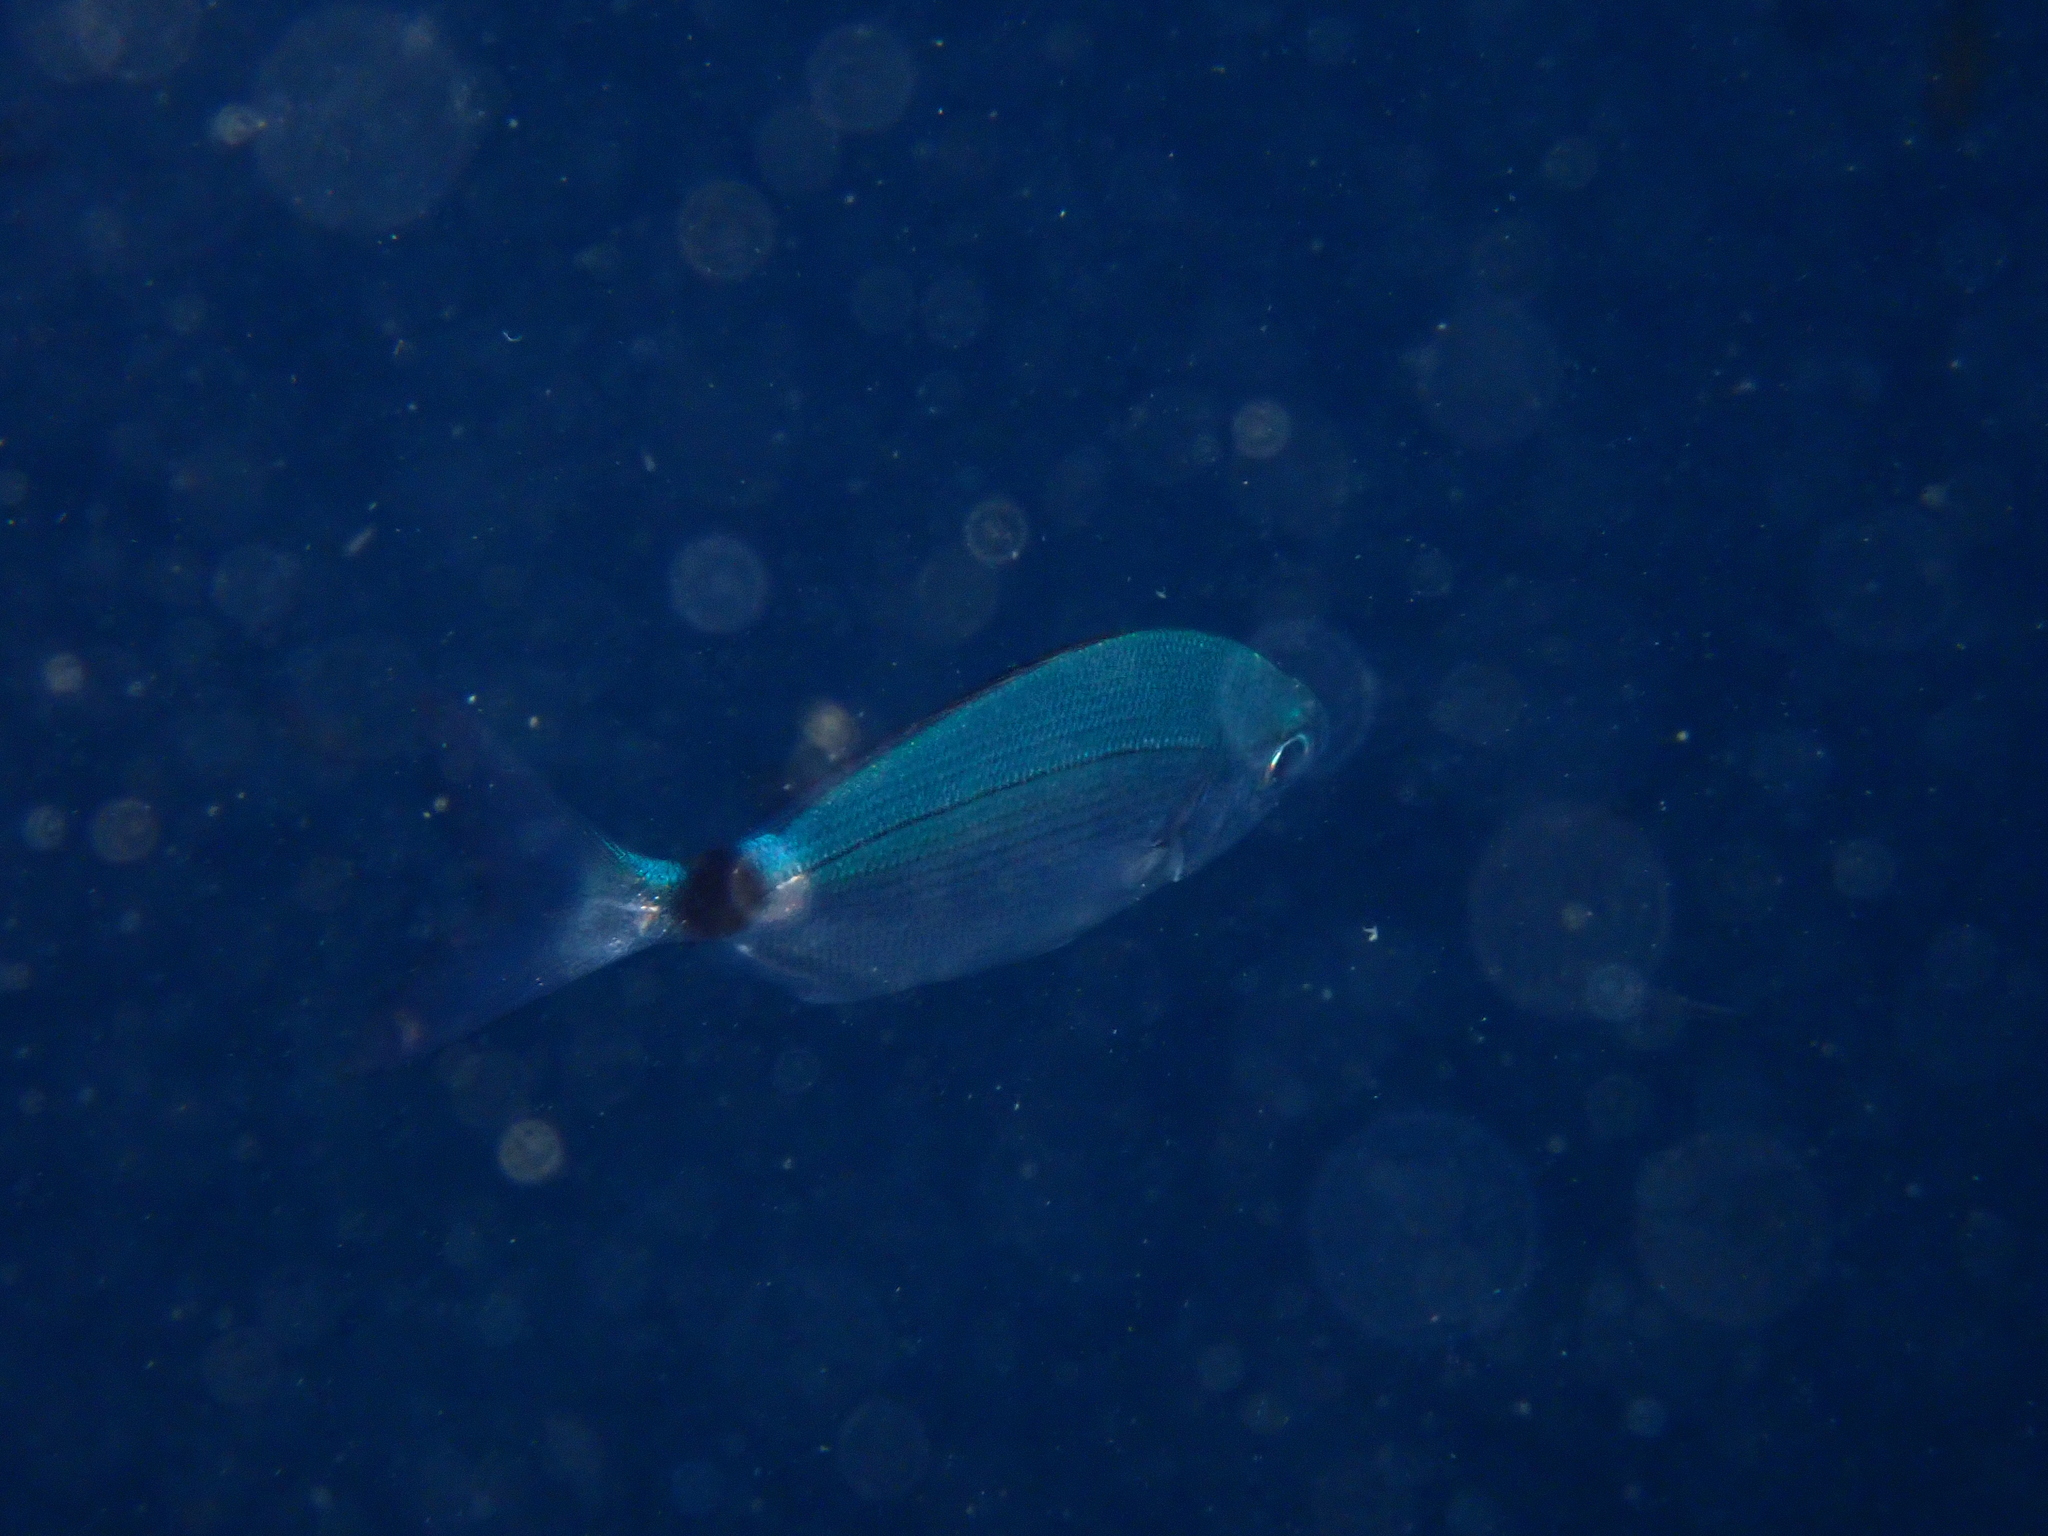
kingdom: Animalia
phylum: Chordata
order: Perciformes
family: Sparidae
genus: Oblada
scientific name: Oblada melanura
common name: Saddled seabream
